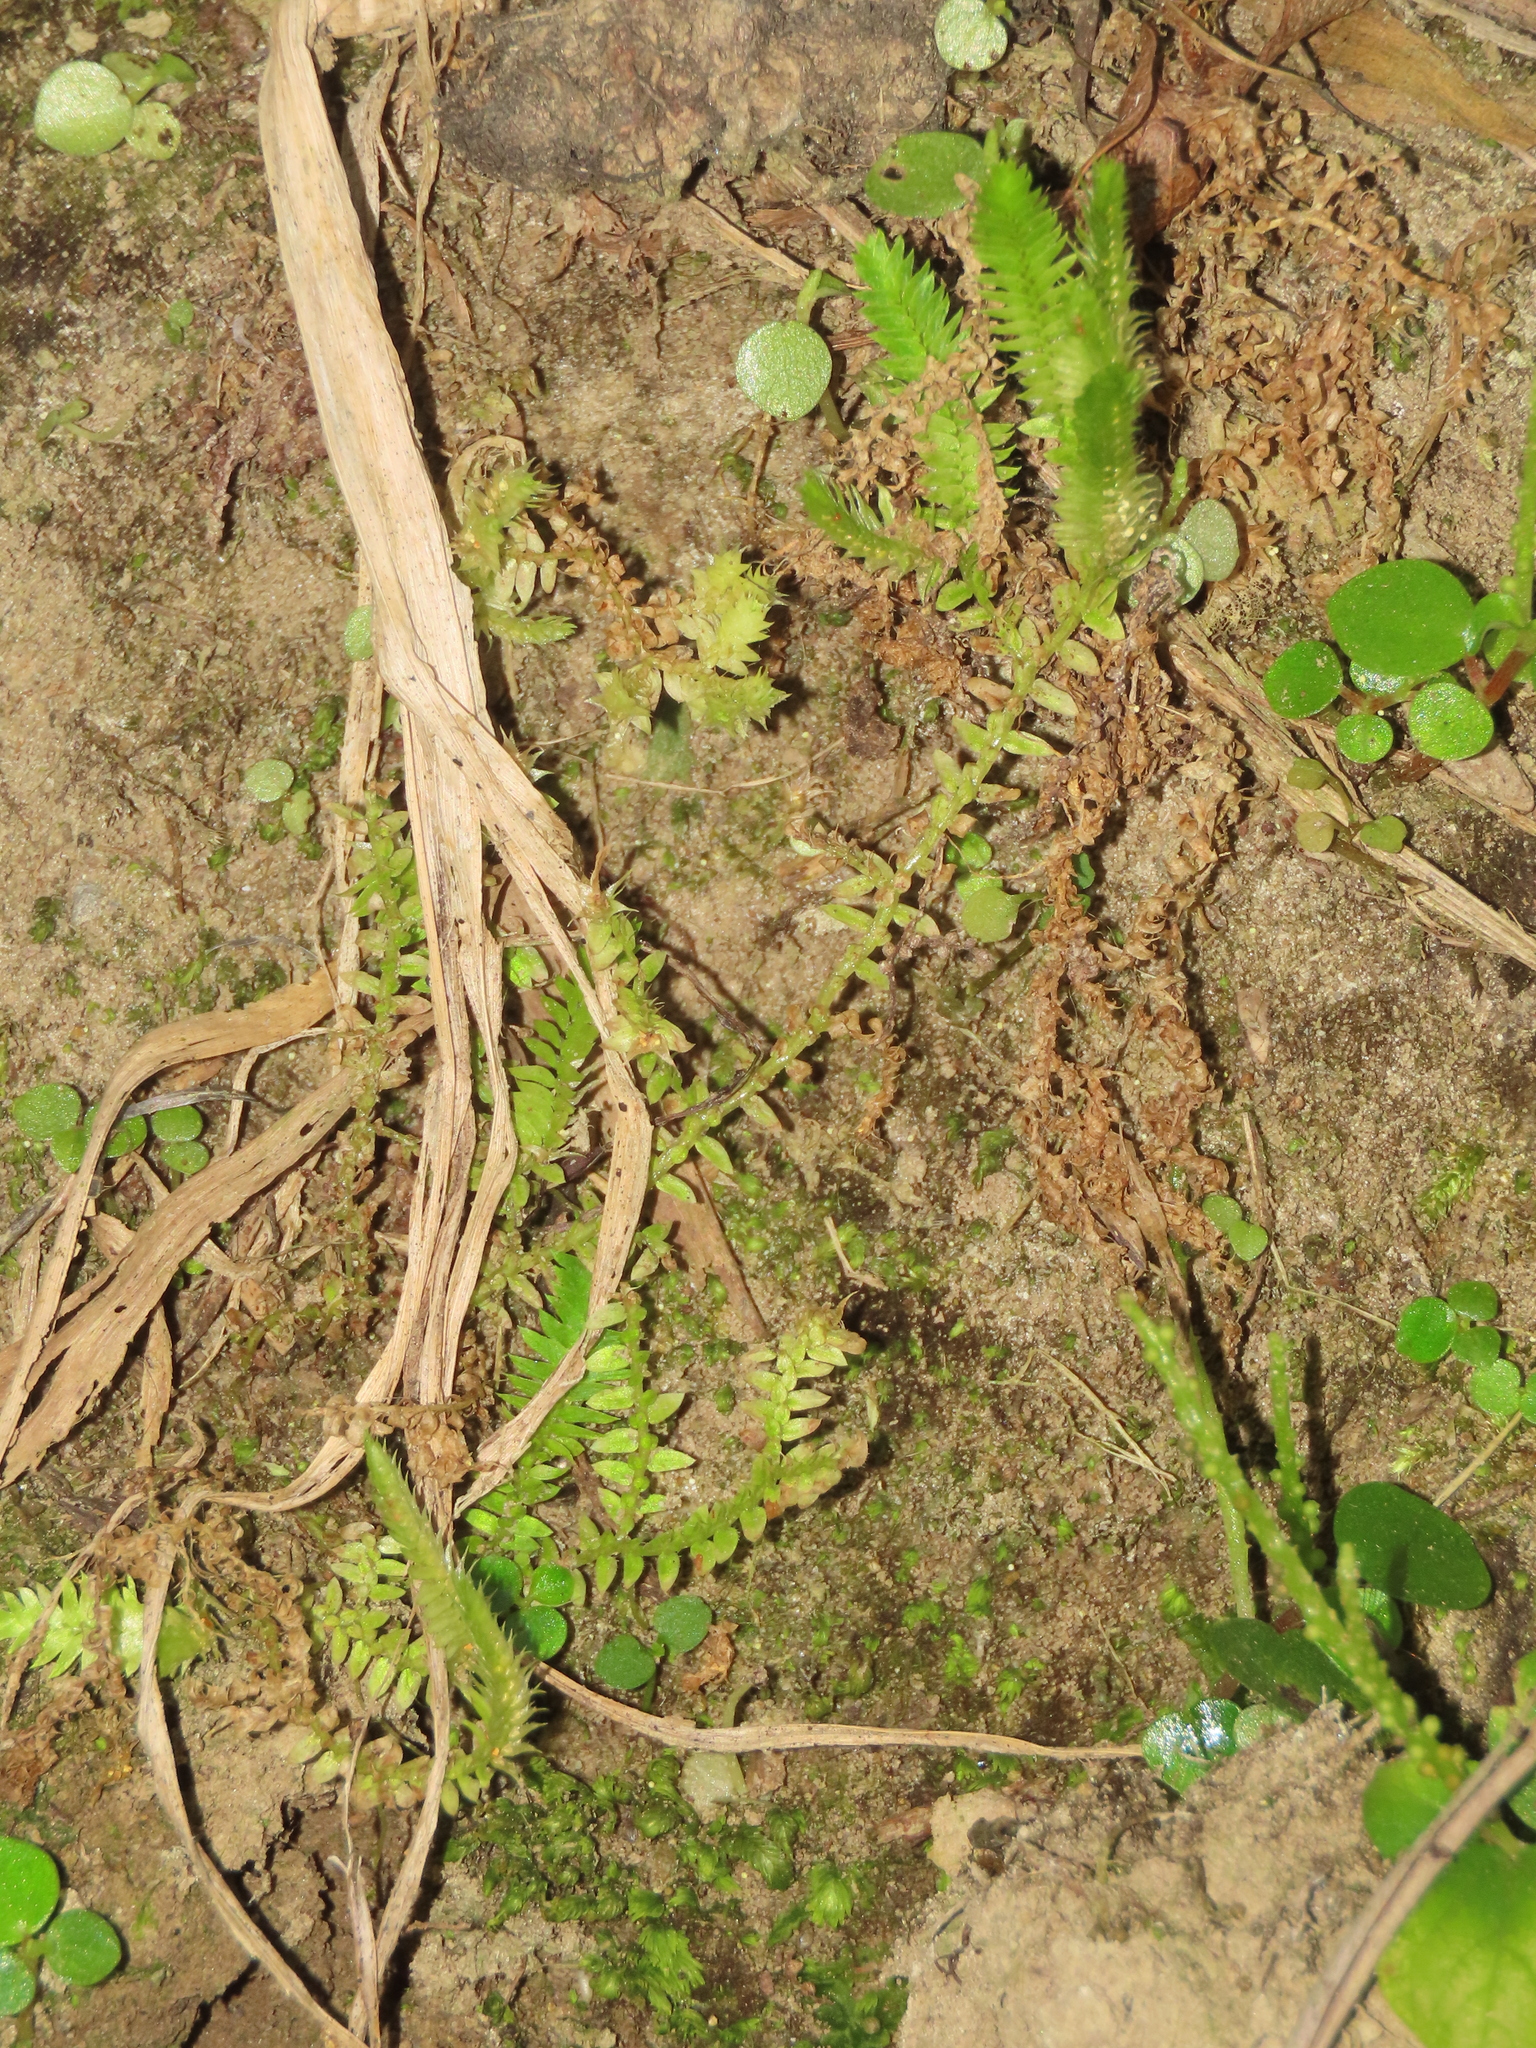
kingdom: Plantae
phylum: Tracheophyta
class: Lycopodiopsida
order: Selaginellales
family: Selaginellaceae
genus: Selaginella
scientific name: Selaginella ciliaris
